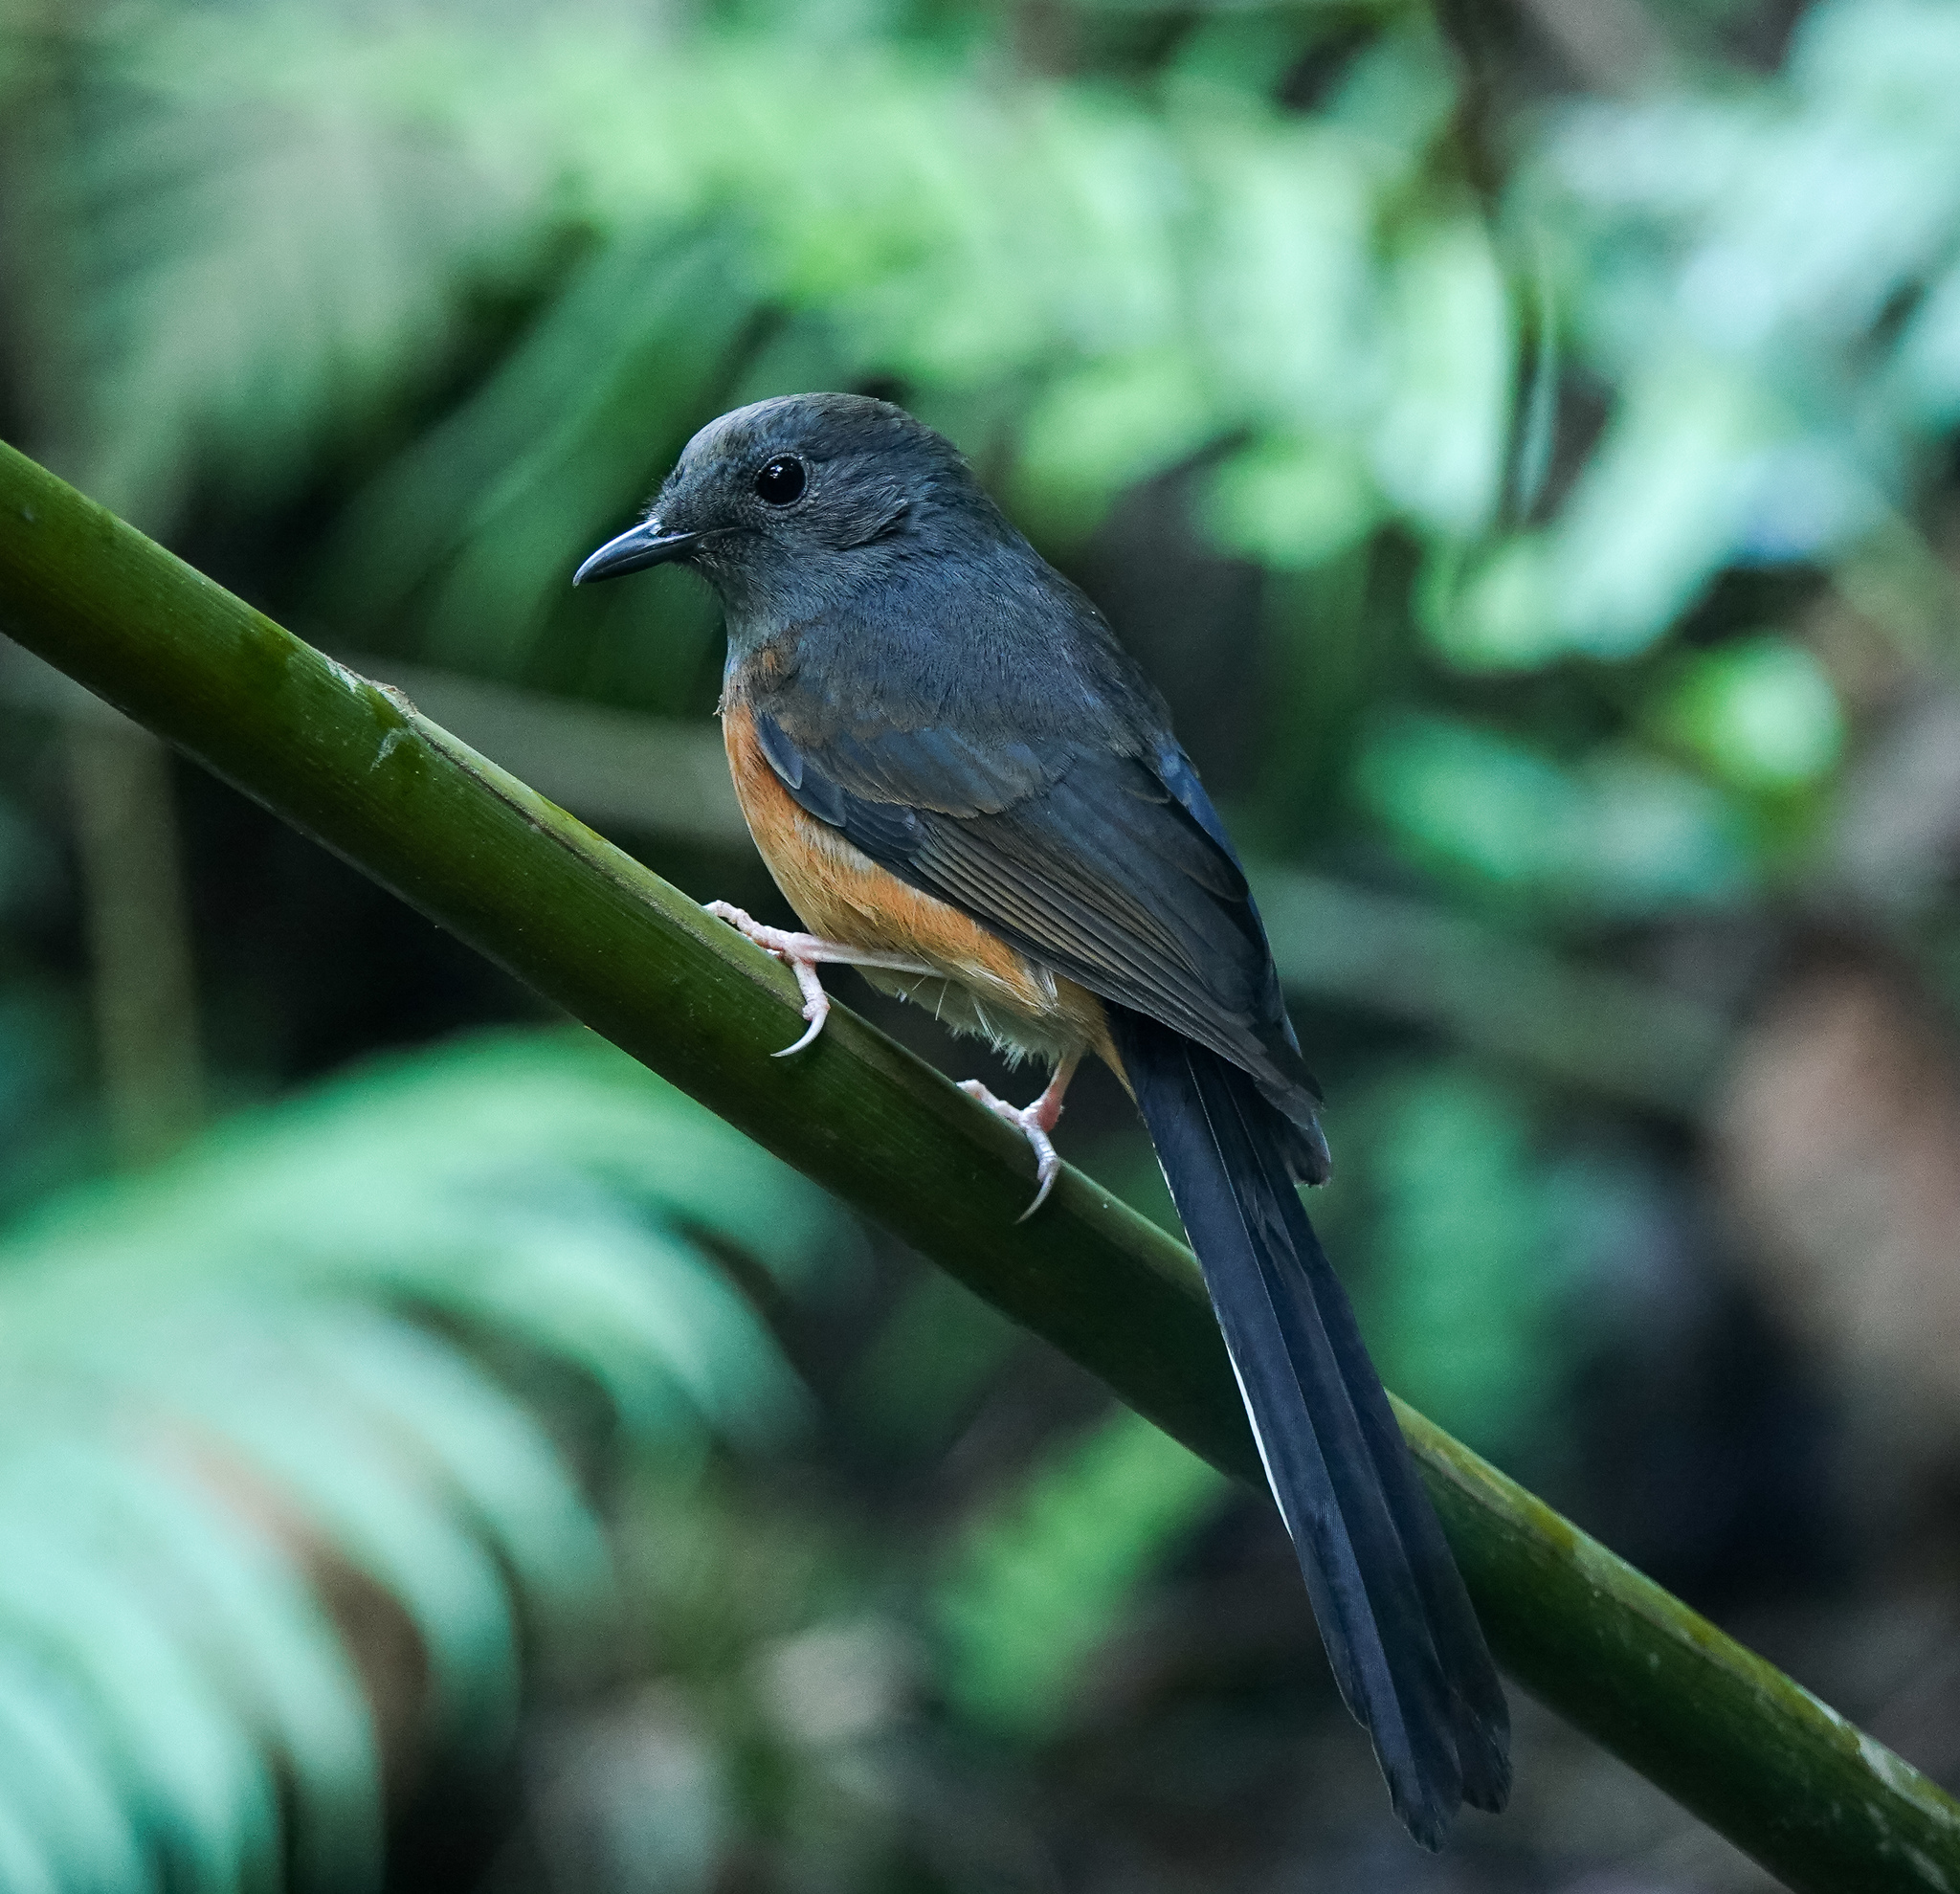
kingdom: Animalia
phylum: Chordata
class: Aves
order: Passeriformes
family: Muscicapidae
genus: Copsychus
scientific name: Copsychus malabaricus
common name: White-rumped shama
